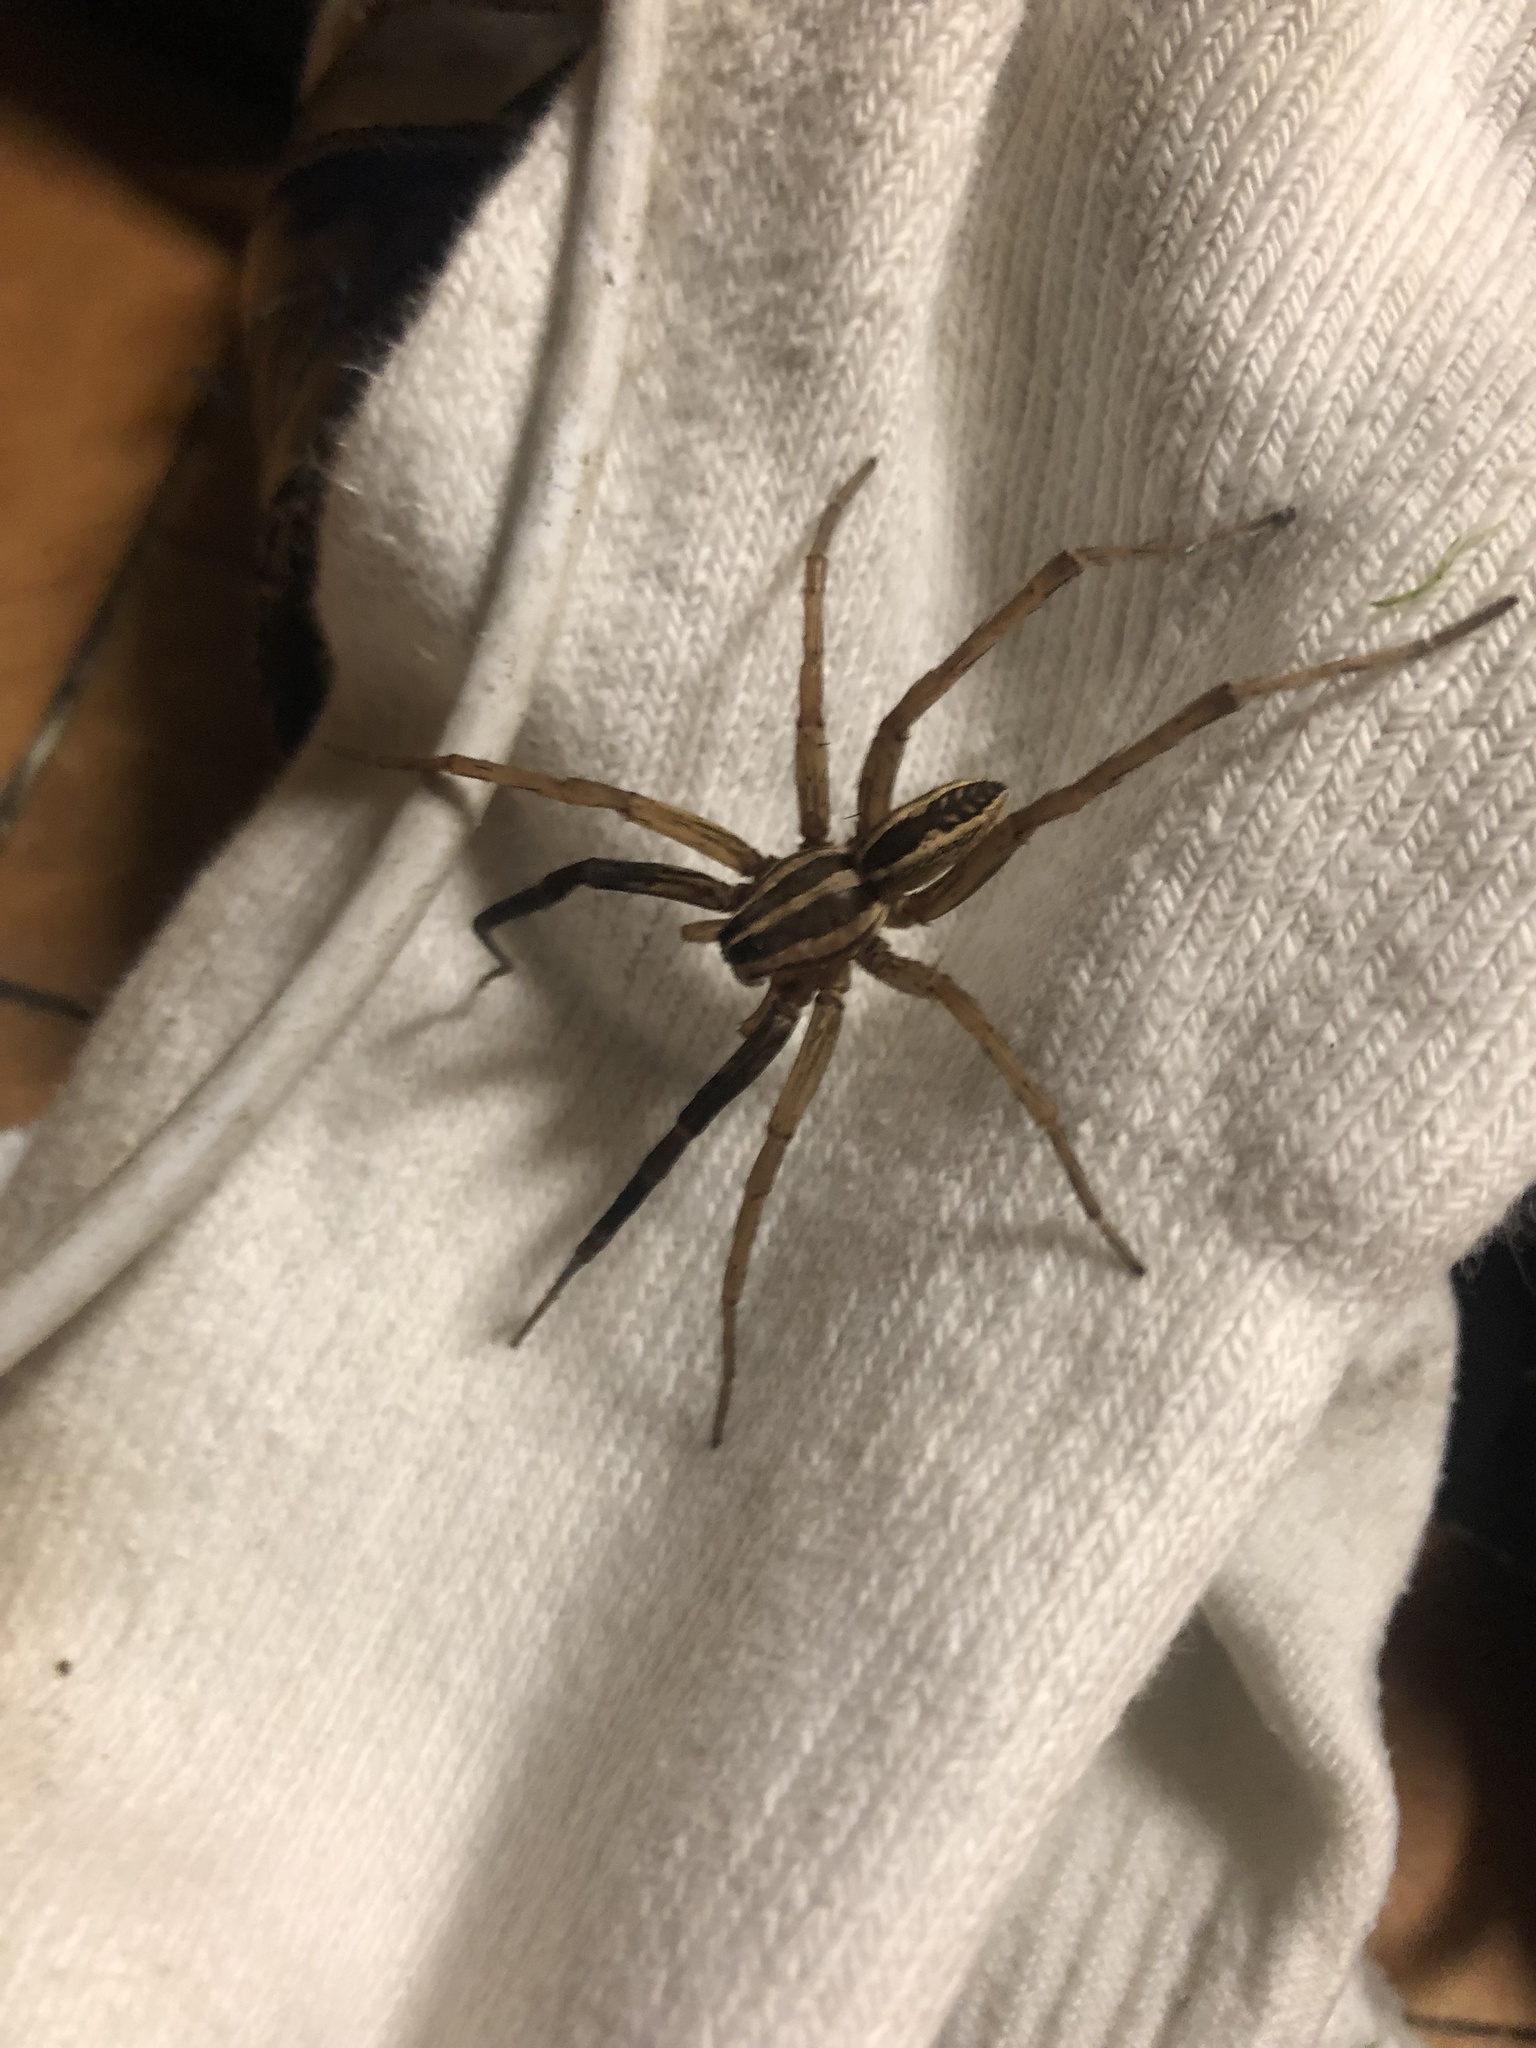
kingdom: Animalia
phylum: Arthropoda
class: Arachnida
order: Araneae
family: Lycosidae
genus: Rabidosa
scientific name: Rabidosa rabida
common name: Rabid wolf spider
